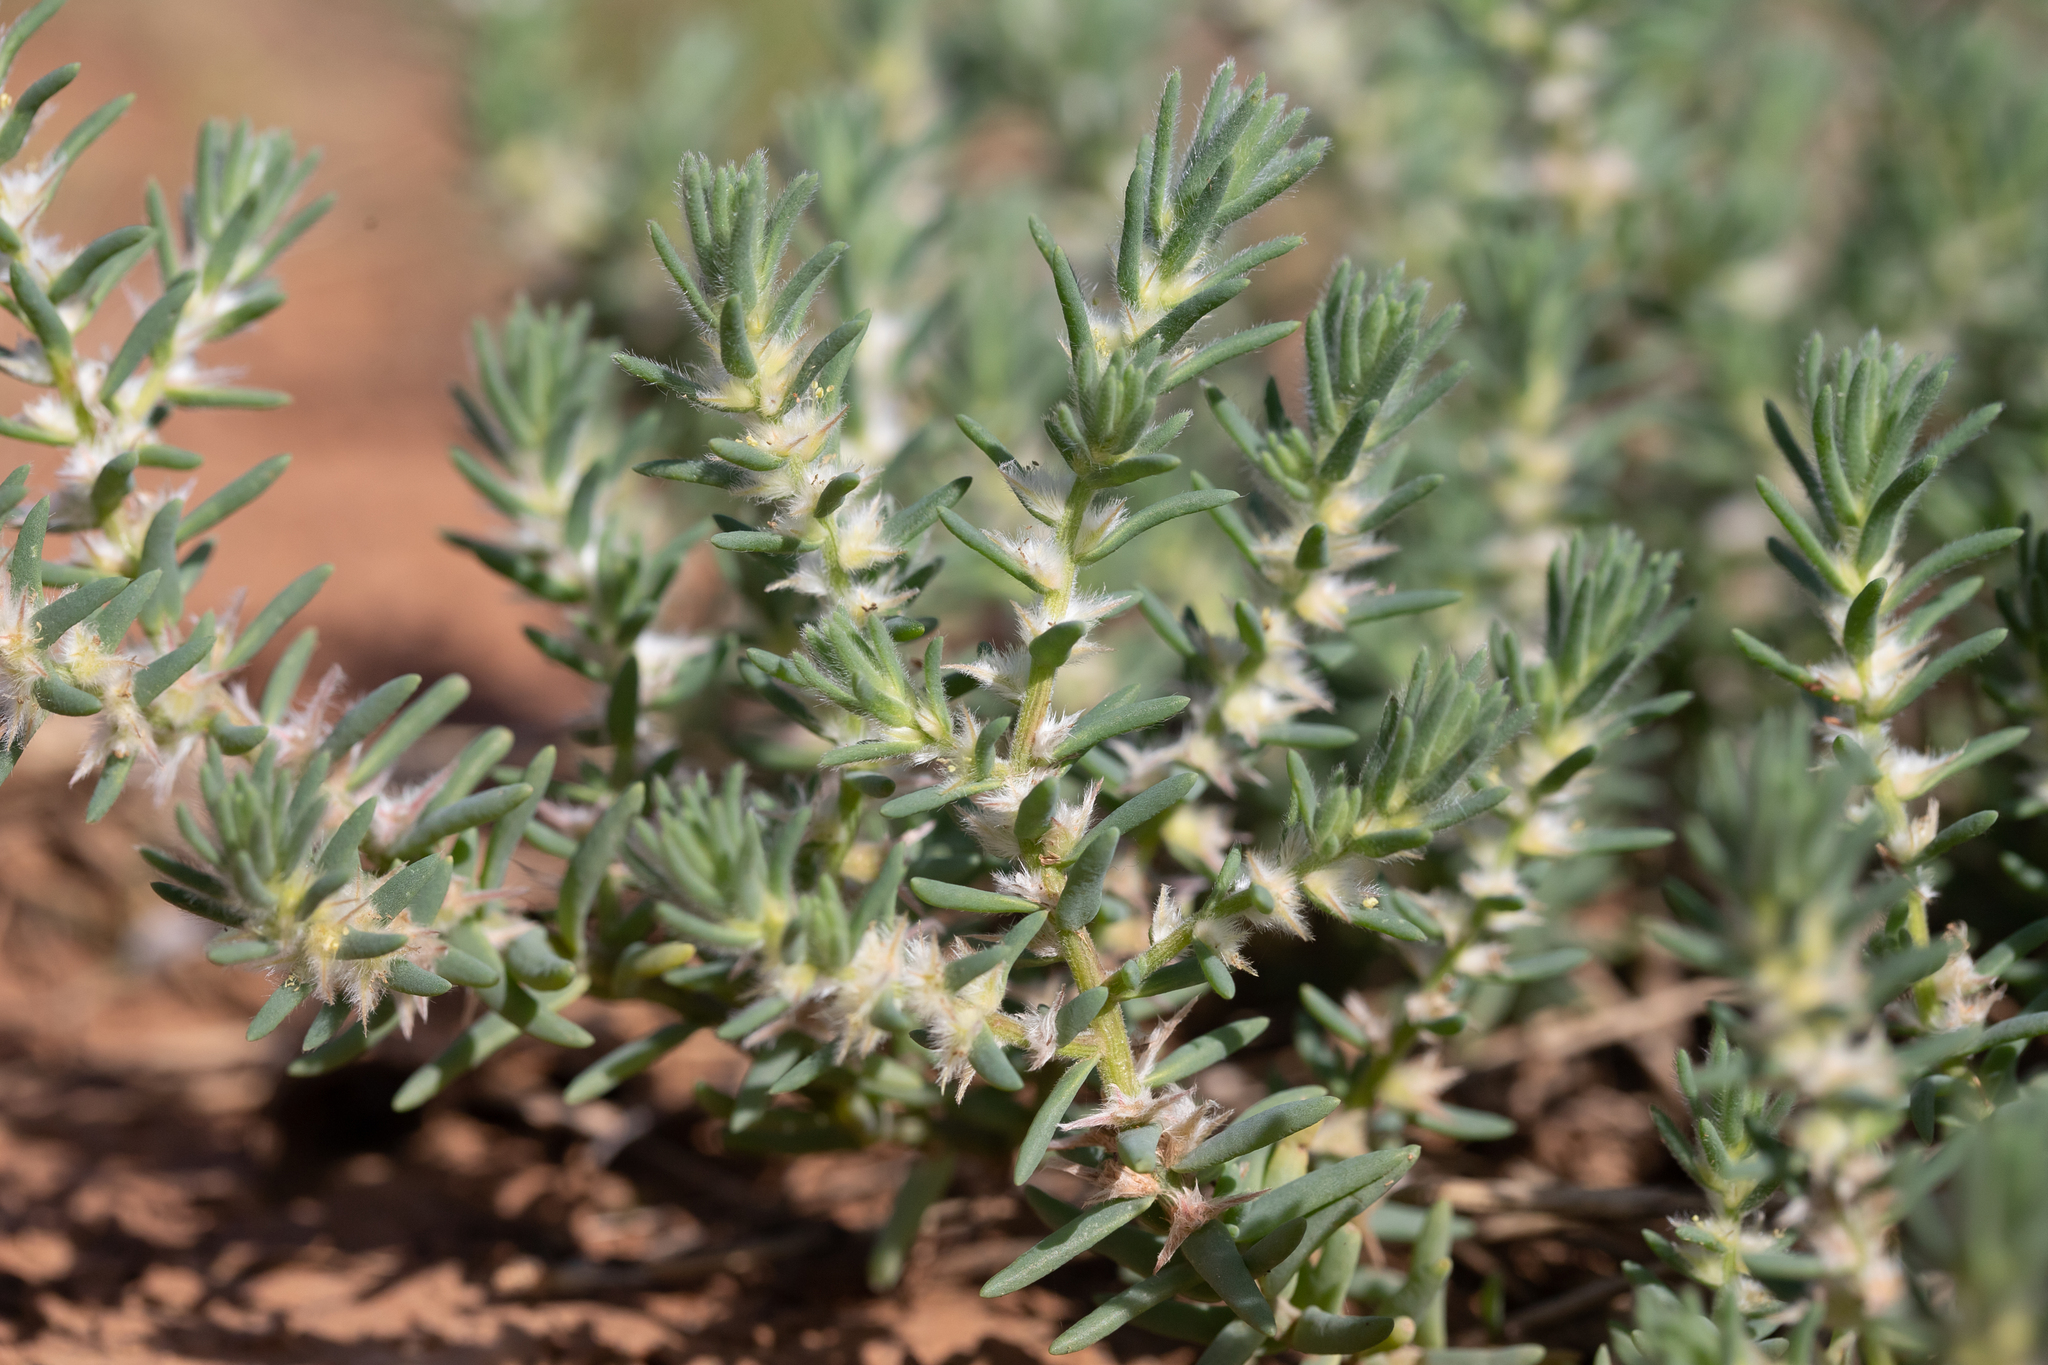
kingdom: Plantae
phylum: Tracheophyta
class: Magnoliopsida
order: Caryophyllales
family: Amaranthaceae
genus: Sclerolaena
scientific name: Sclerolaena lanicuspis
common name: Copperbur
